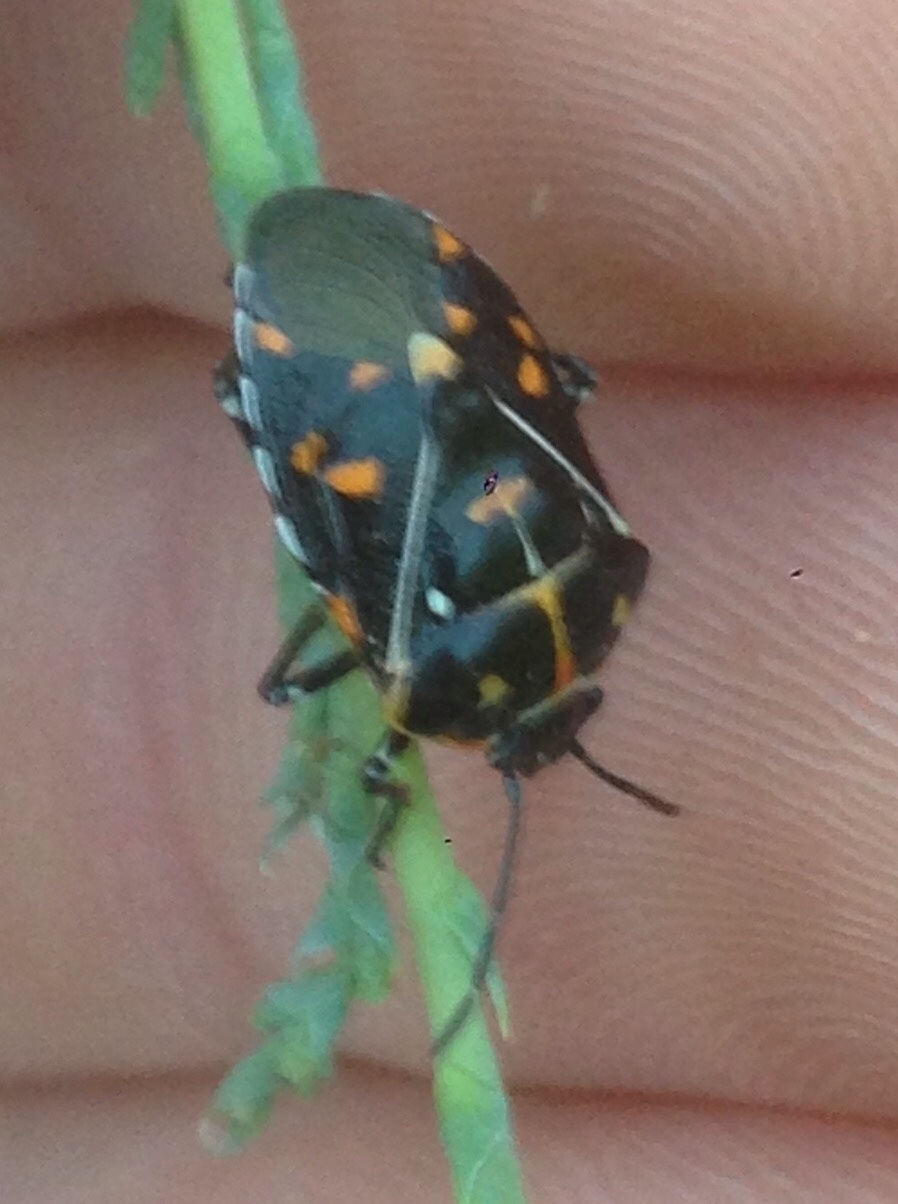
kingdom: Animalia
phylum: Arthropoda
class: Insecta
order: Hemiptera
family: Pentatomidae
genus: Murgantia
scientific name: Murgantia histrionica
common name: Harlequin bug
